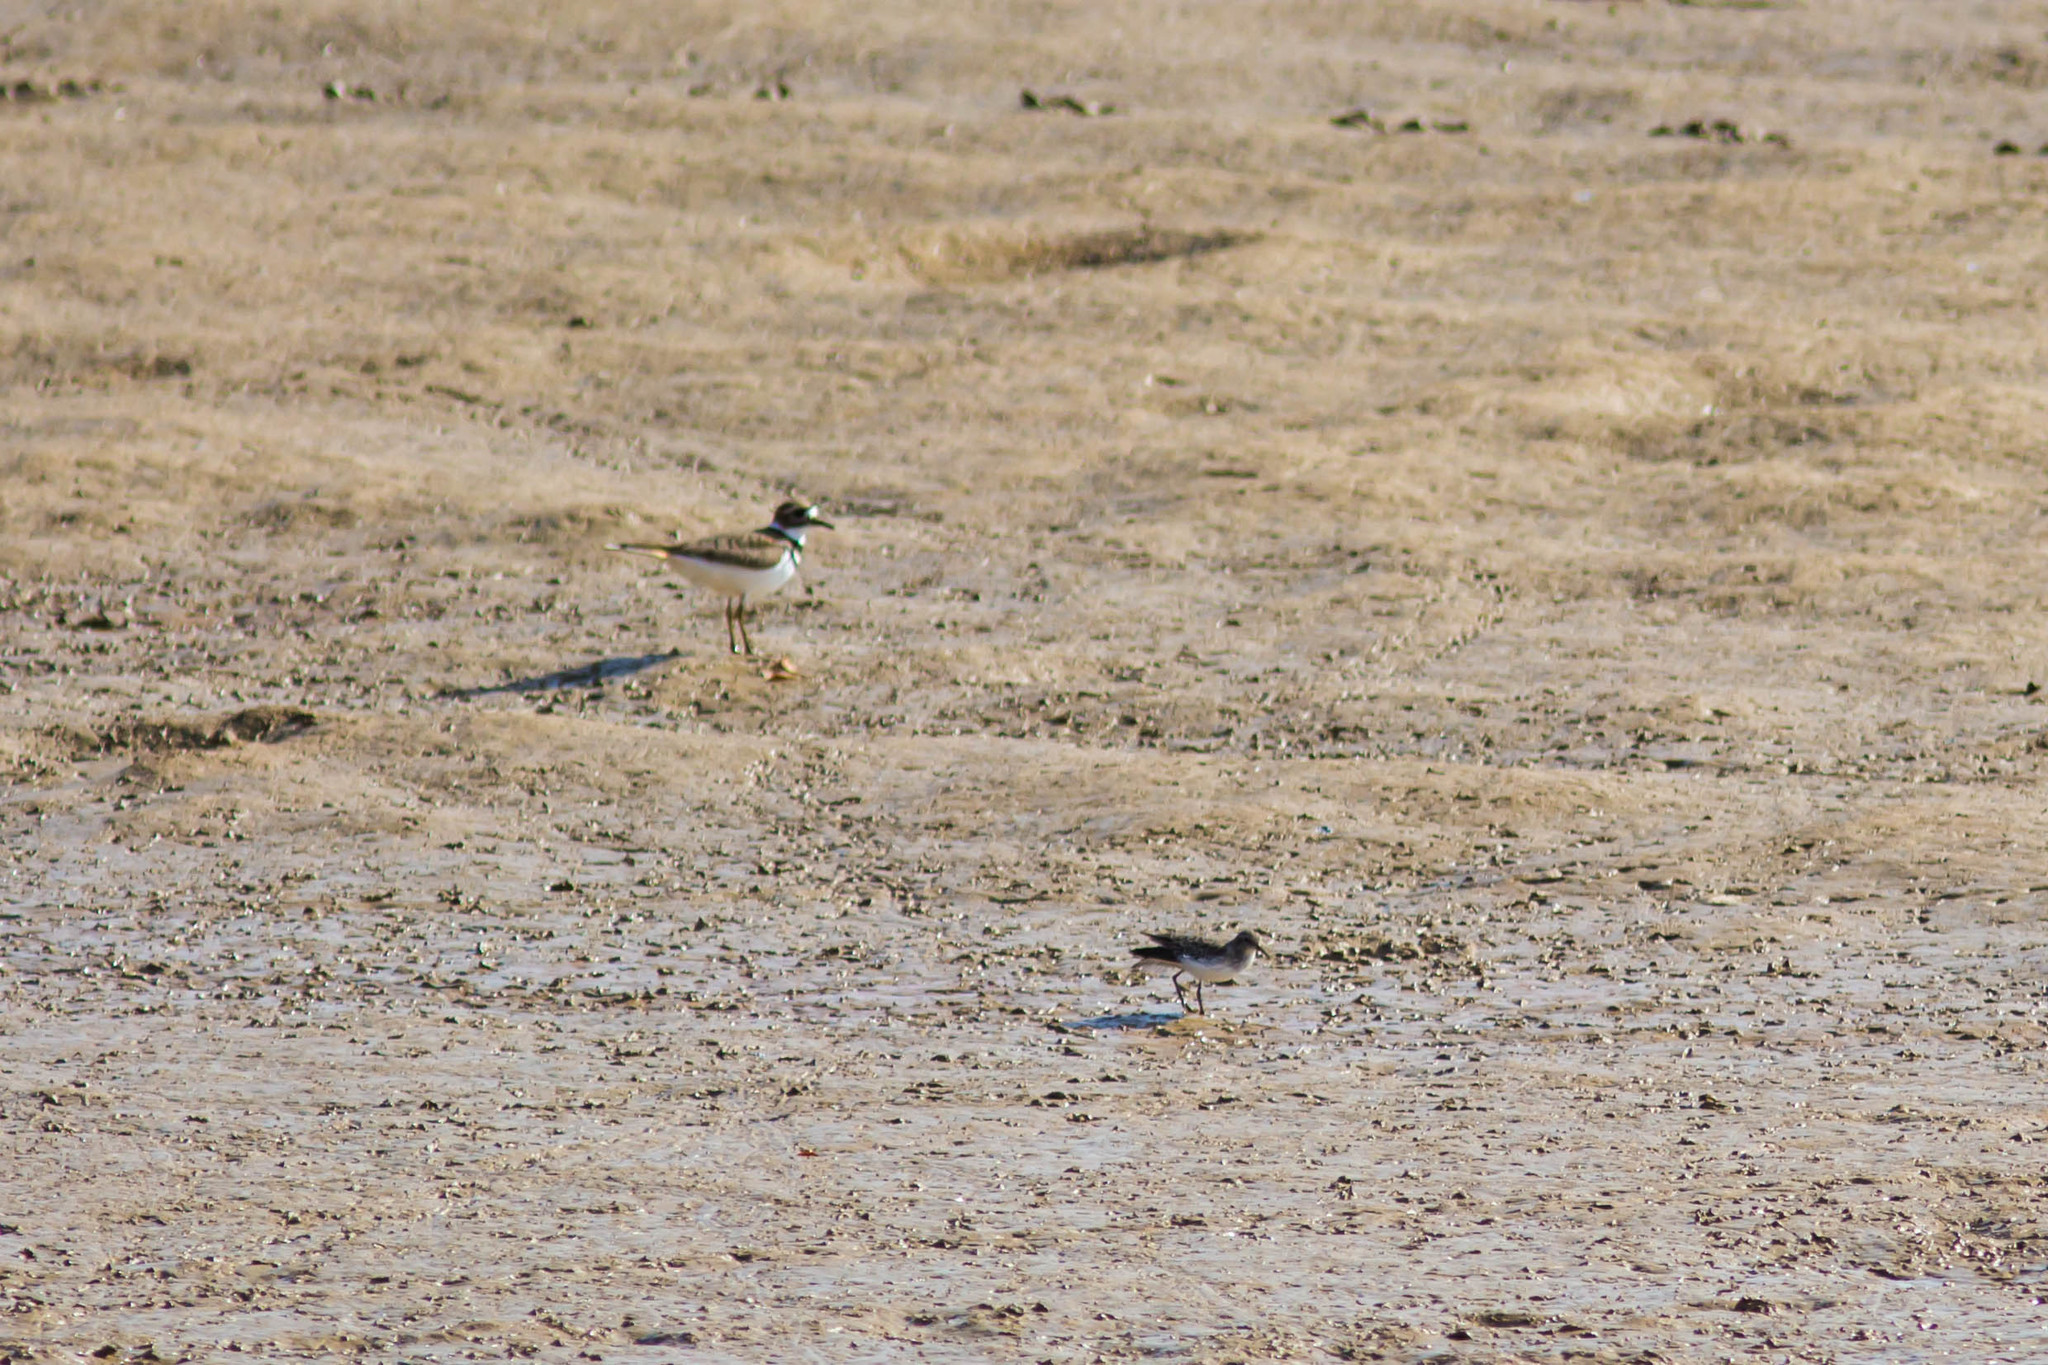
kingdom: Animalia
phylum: Chordata
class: Aves
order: Charadriiformes
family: Scolopacidae
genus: Calidris
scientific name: Calidris minutilla
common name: Least sandpiper
